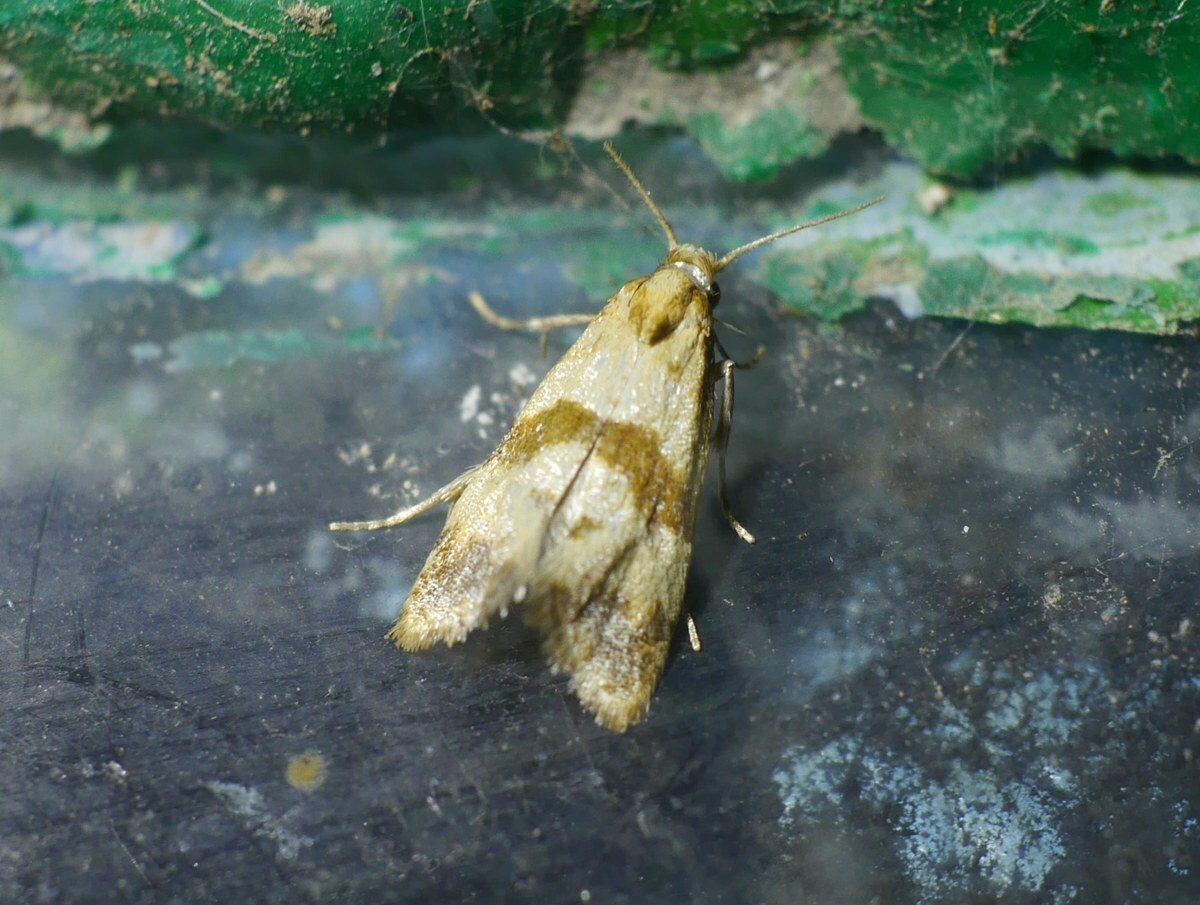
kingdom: Animalia
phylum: Arthropoda
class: Insecta
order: Lepidoptera
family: Tortricidae
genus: Phalonidia
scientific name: Phalonidia contractana
